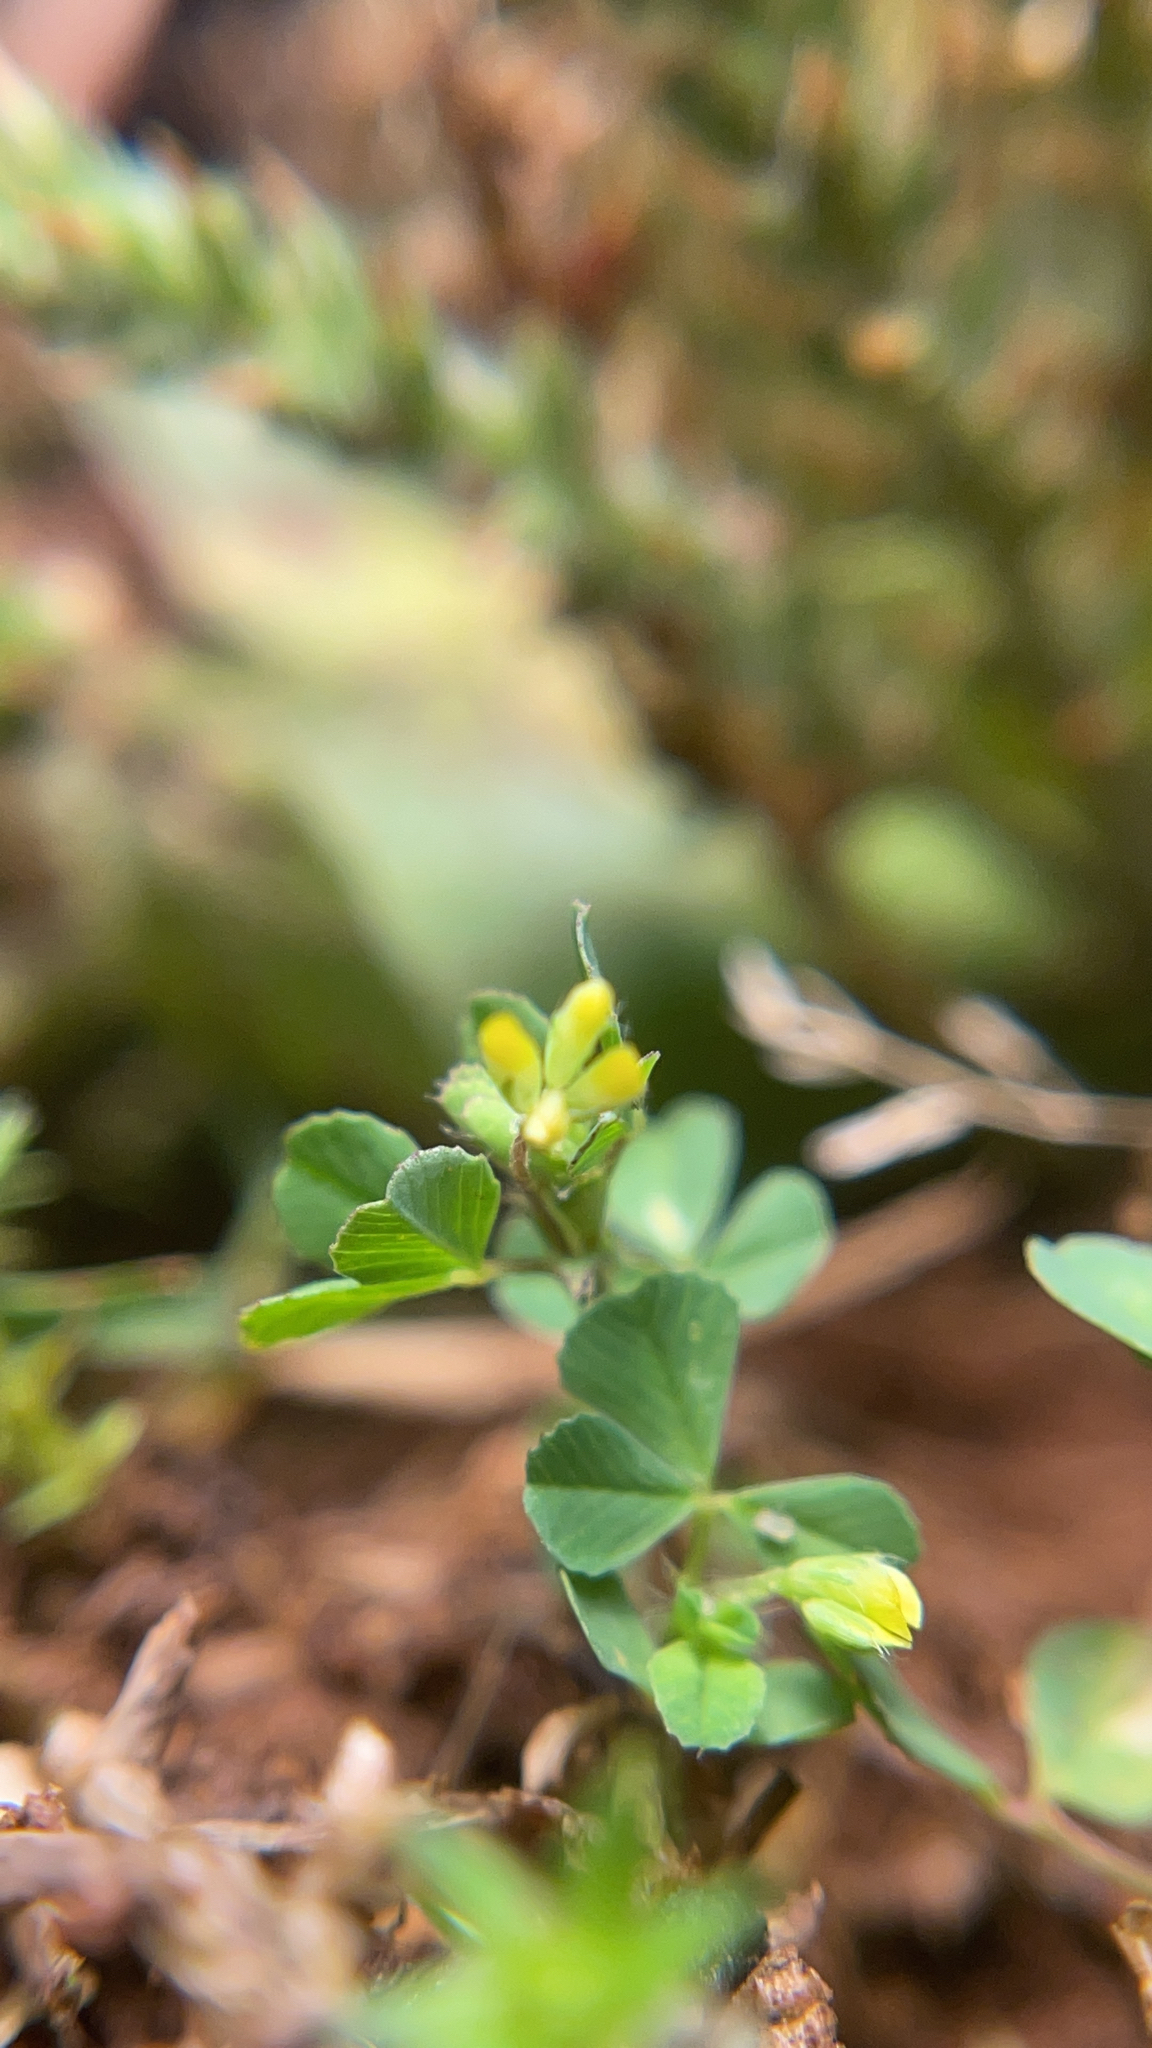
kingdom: Plantae
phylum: Tracheophyta
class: Magnoliopsida
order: Fabales
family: Fabaceae
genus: Trifolium
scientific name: Trifolium dubium
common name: Suckling clover
